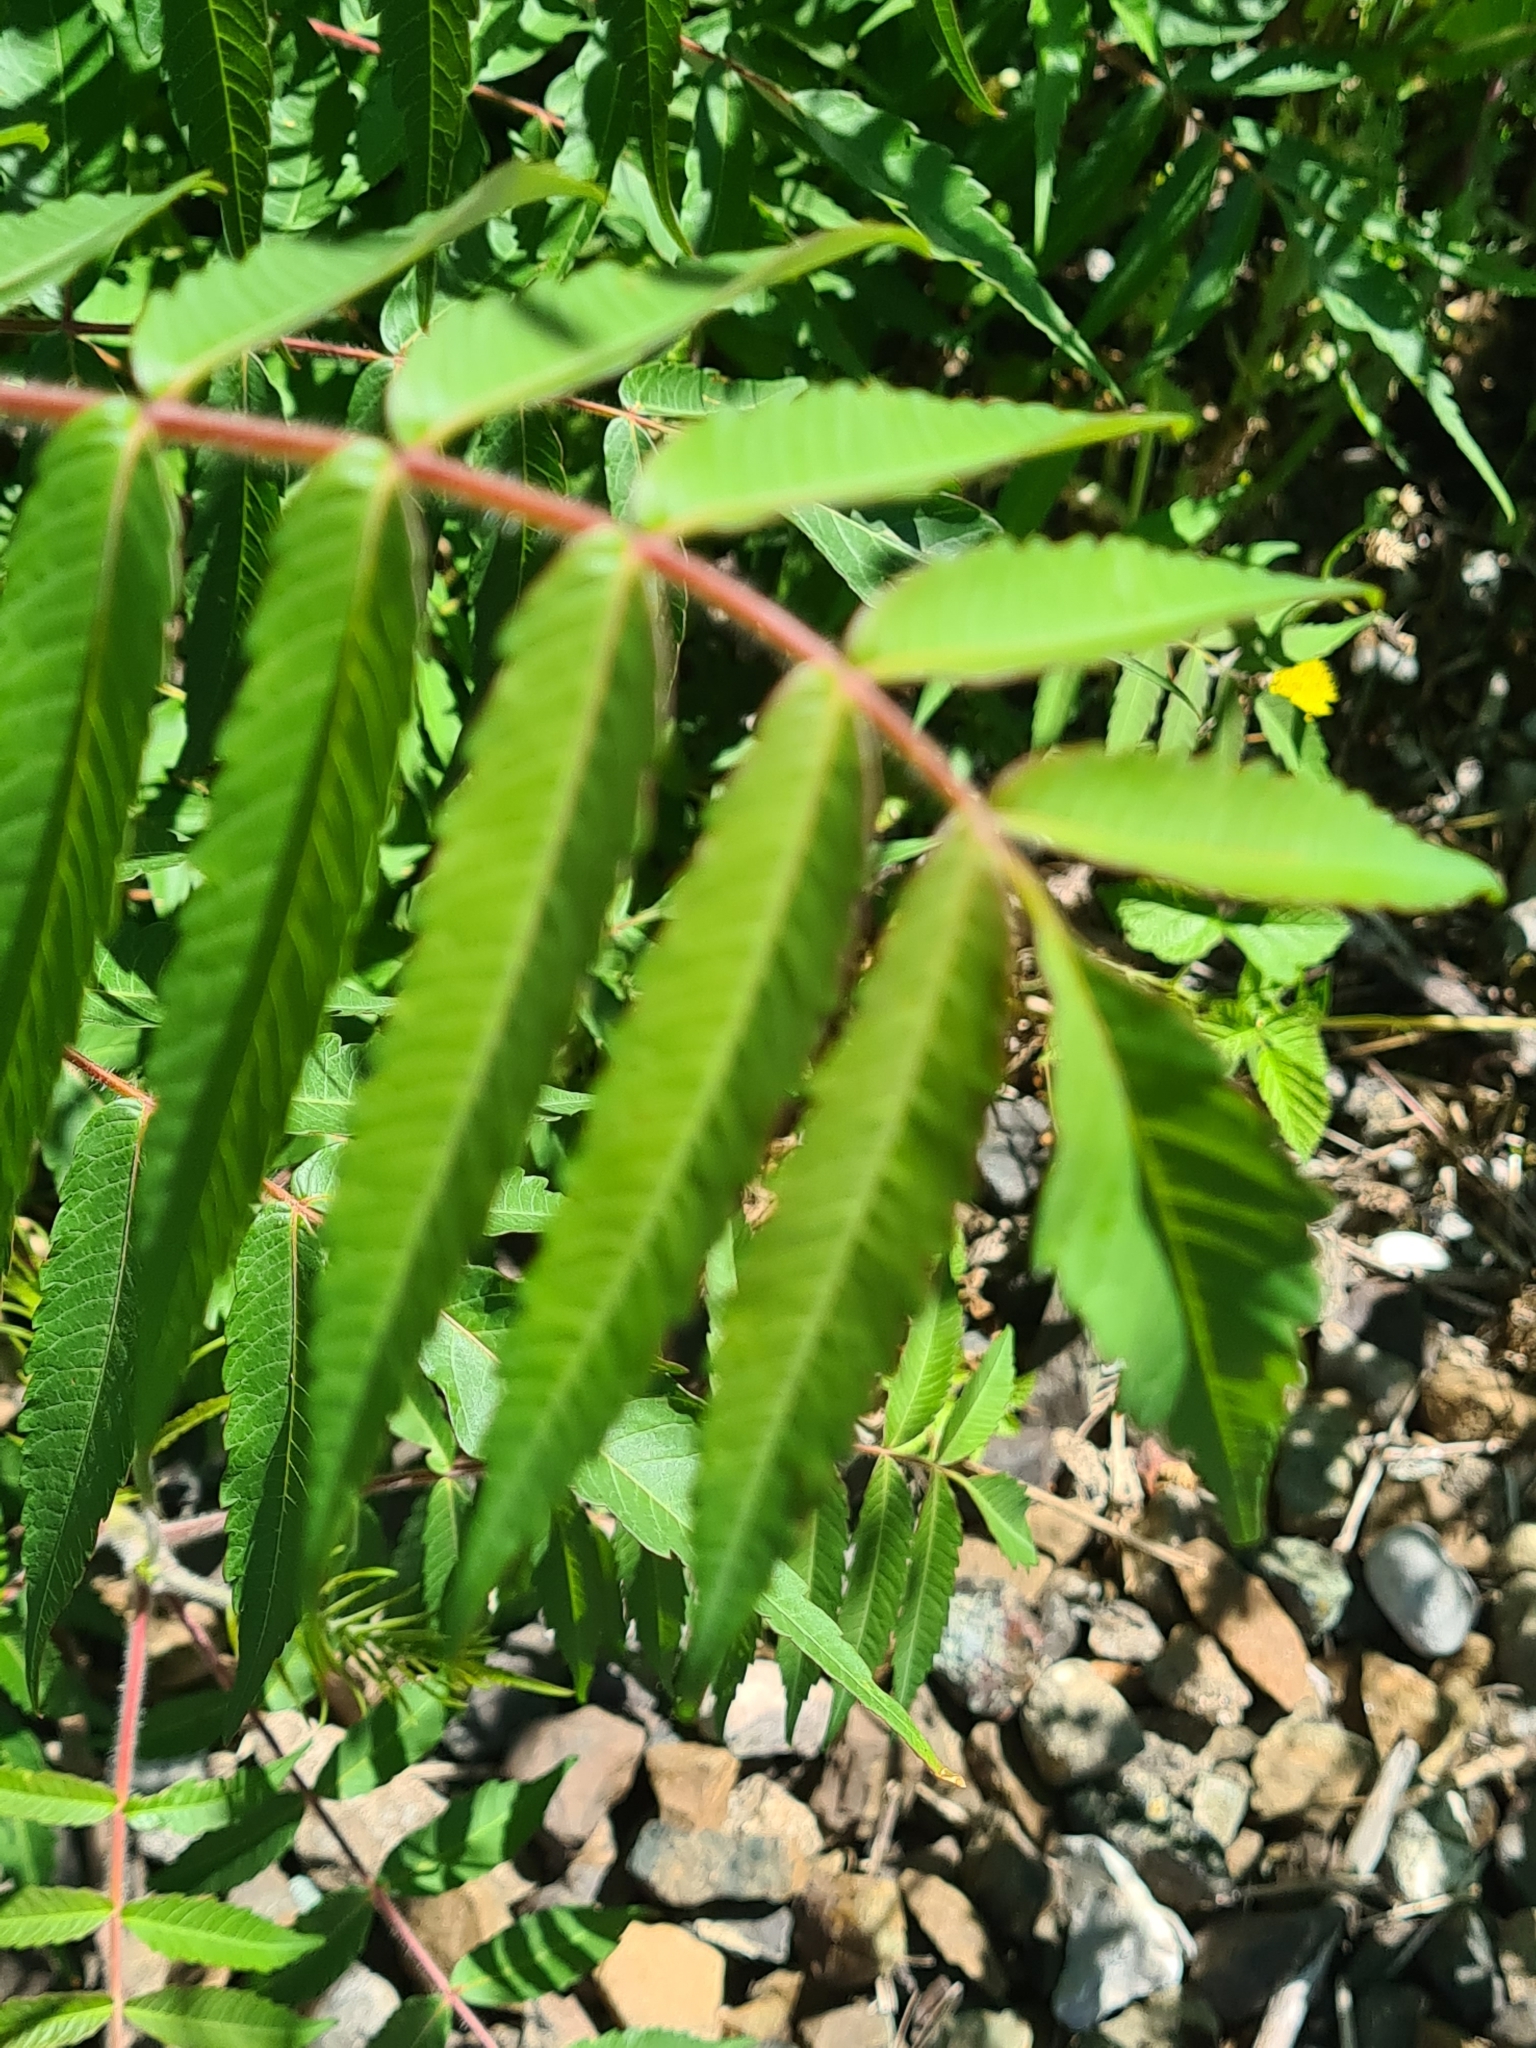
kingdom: Plantae
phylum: Tracheophyta
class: Magnoliopsida
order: Sapindales
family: Anacardiaceae
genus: Rhus
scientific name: Rhus typhina
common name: Staghorn sumac
